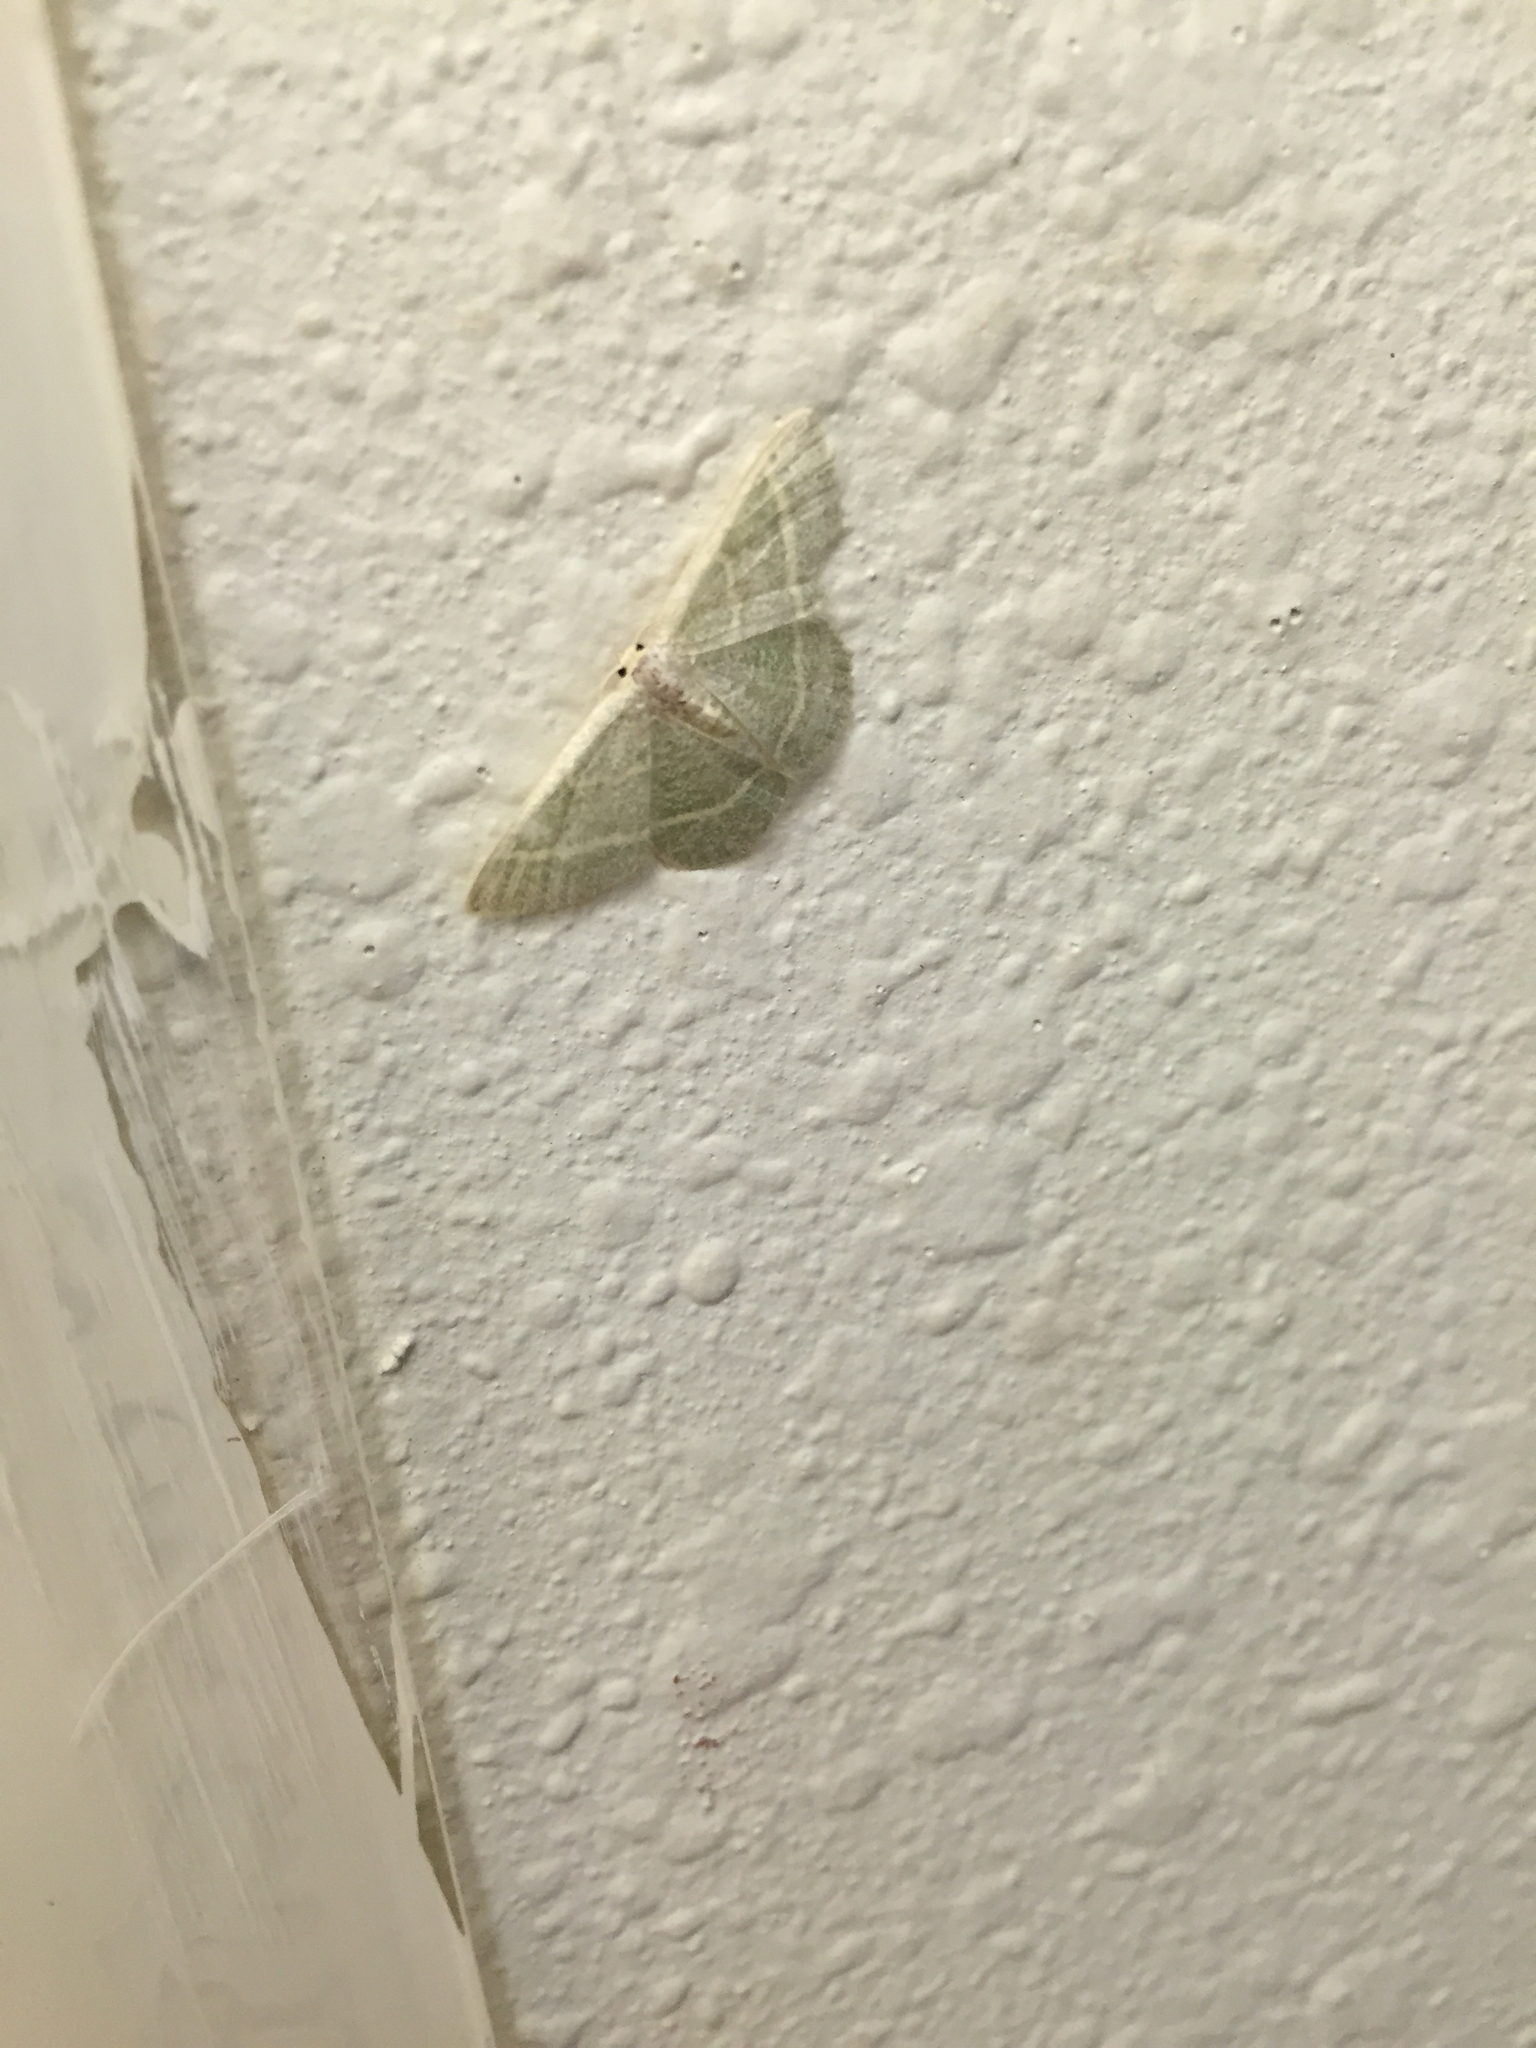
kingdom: Animalia
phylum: Arthropoda
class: Insecta
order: Lepidoptera
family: Geometridae
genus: Chlorochlamys
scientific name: Chlorochlamys chloroleucaria
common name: Blackberry looper
